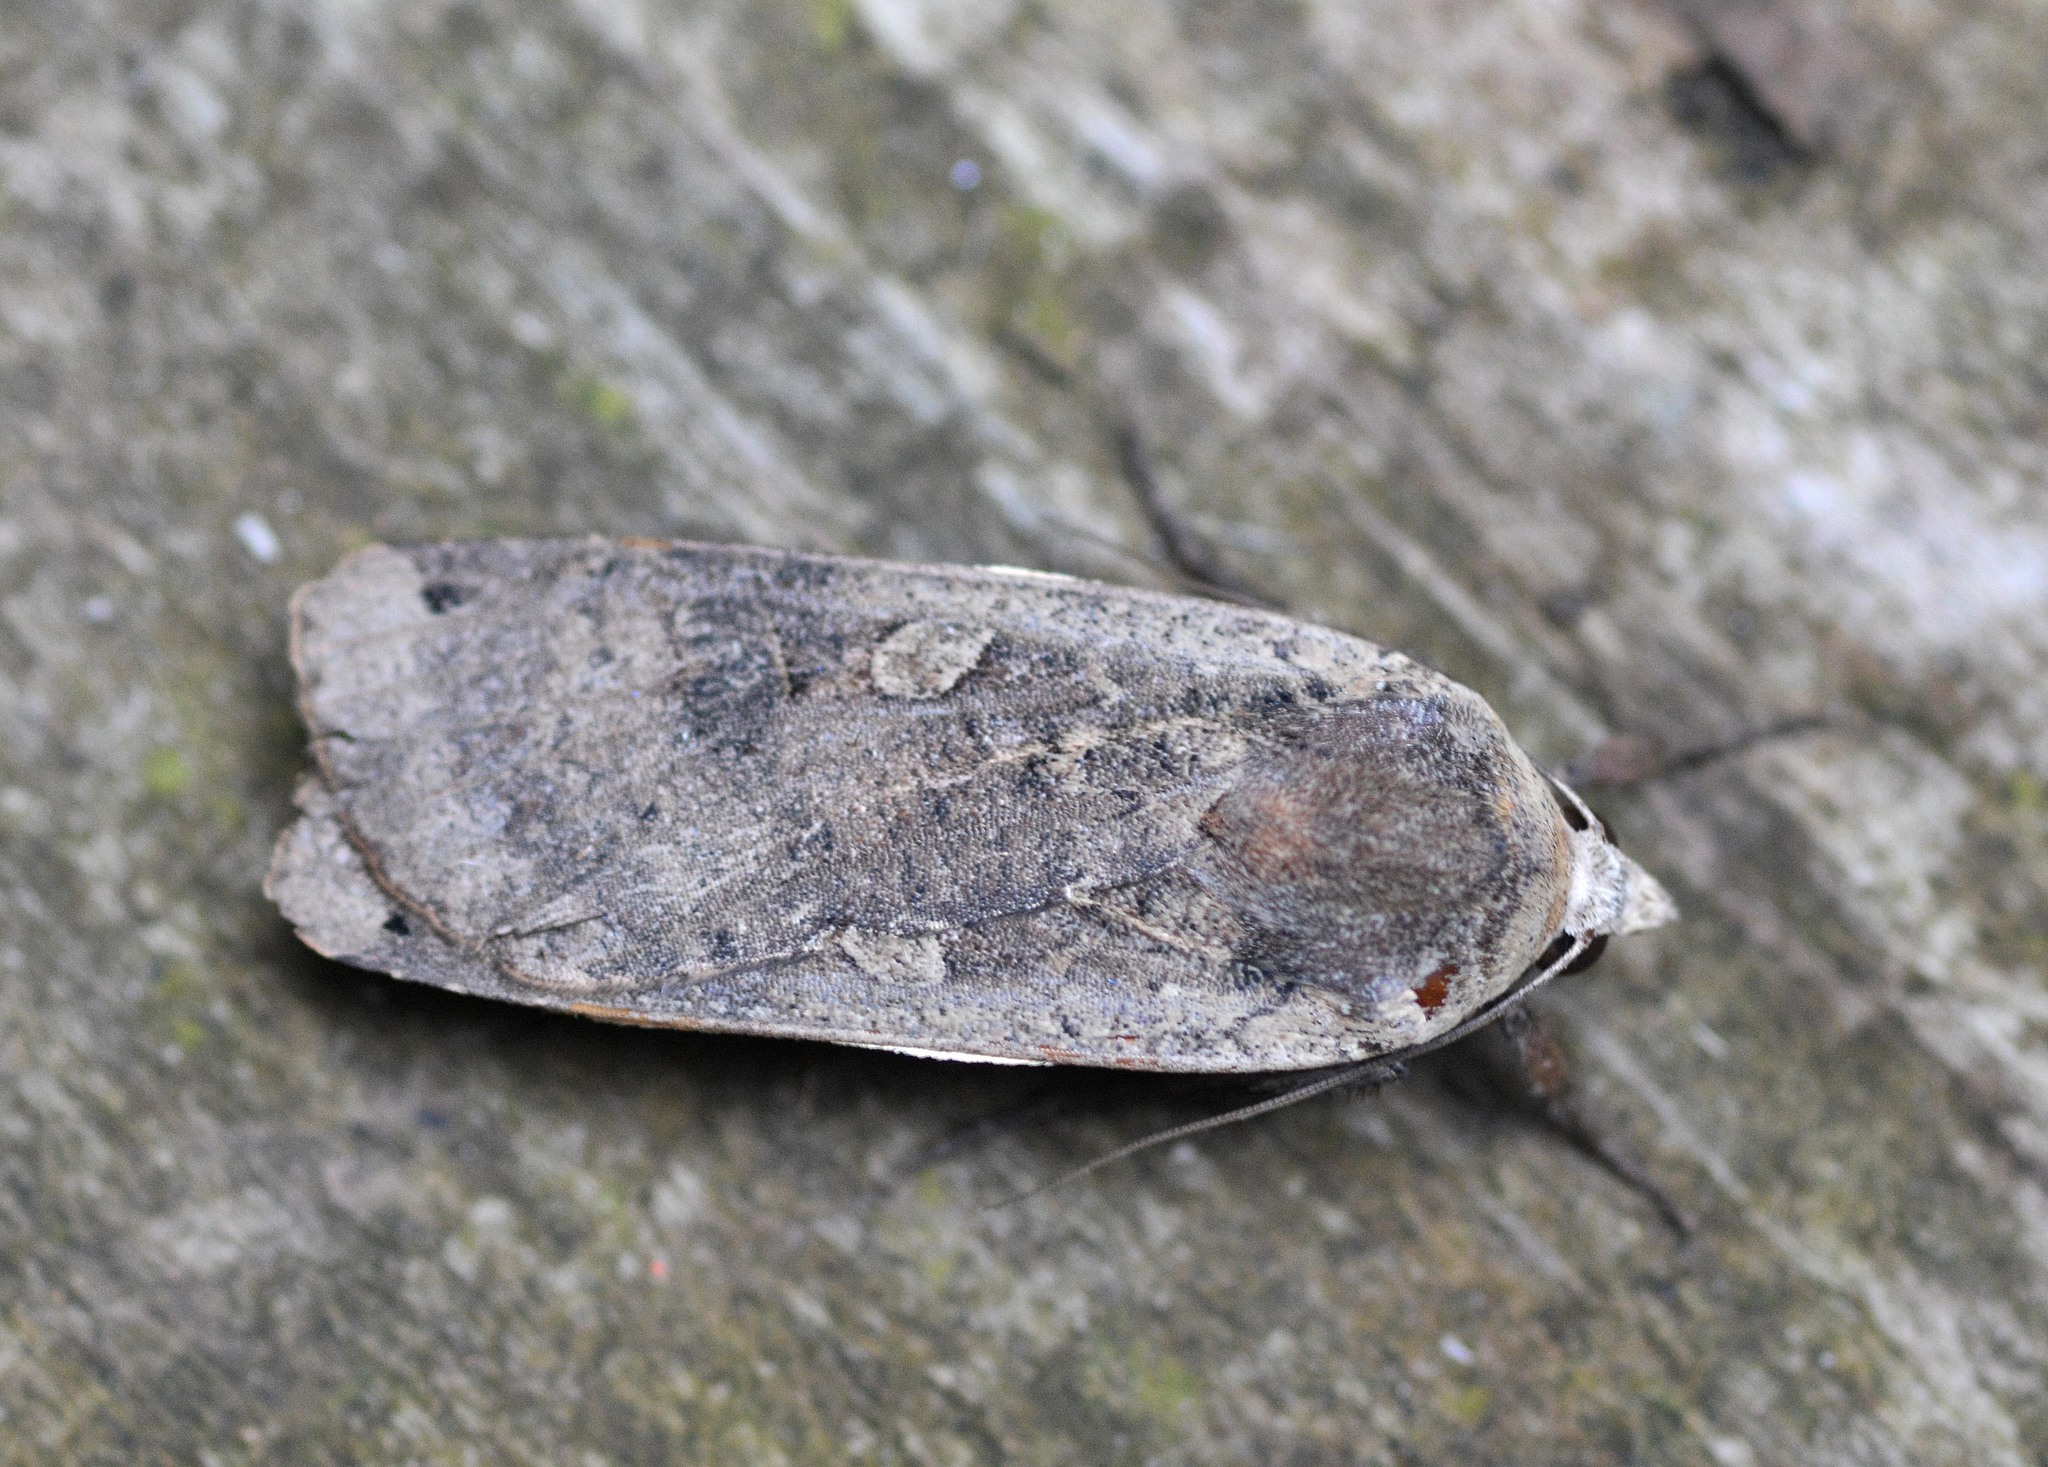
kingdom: Animalia
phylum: Arthropoda
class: Insecta
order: Lepidoptera
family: Noctuidae
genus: Noctua
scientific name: Noctua pronuba
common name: Large yellow underwing
